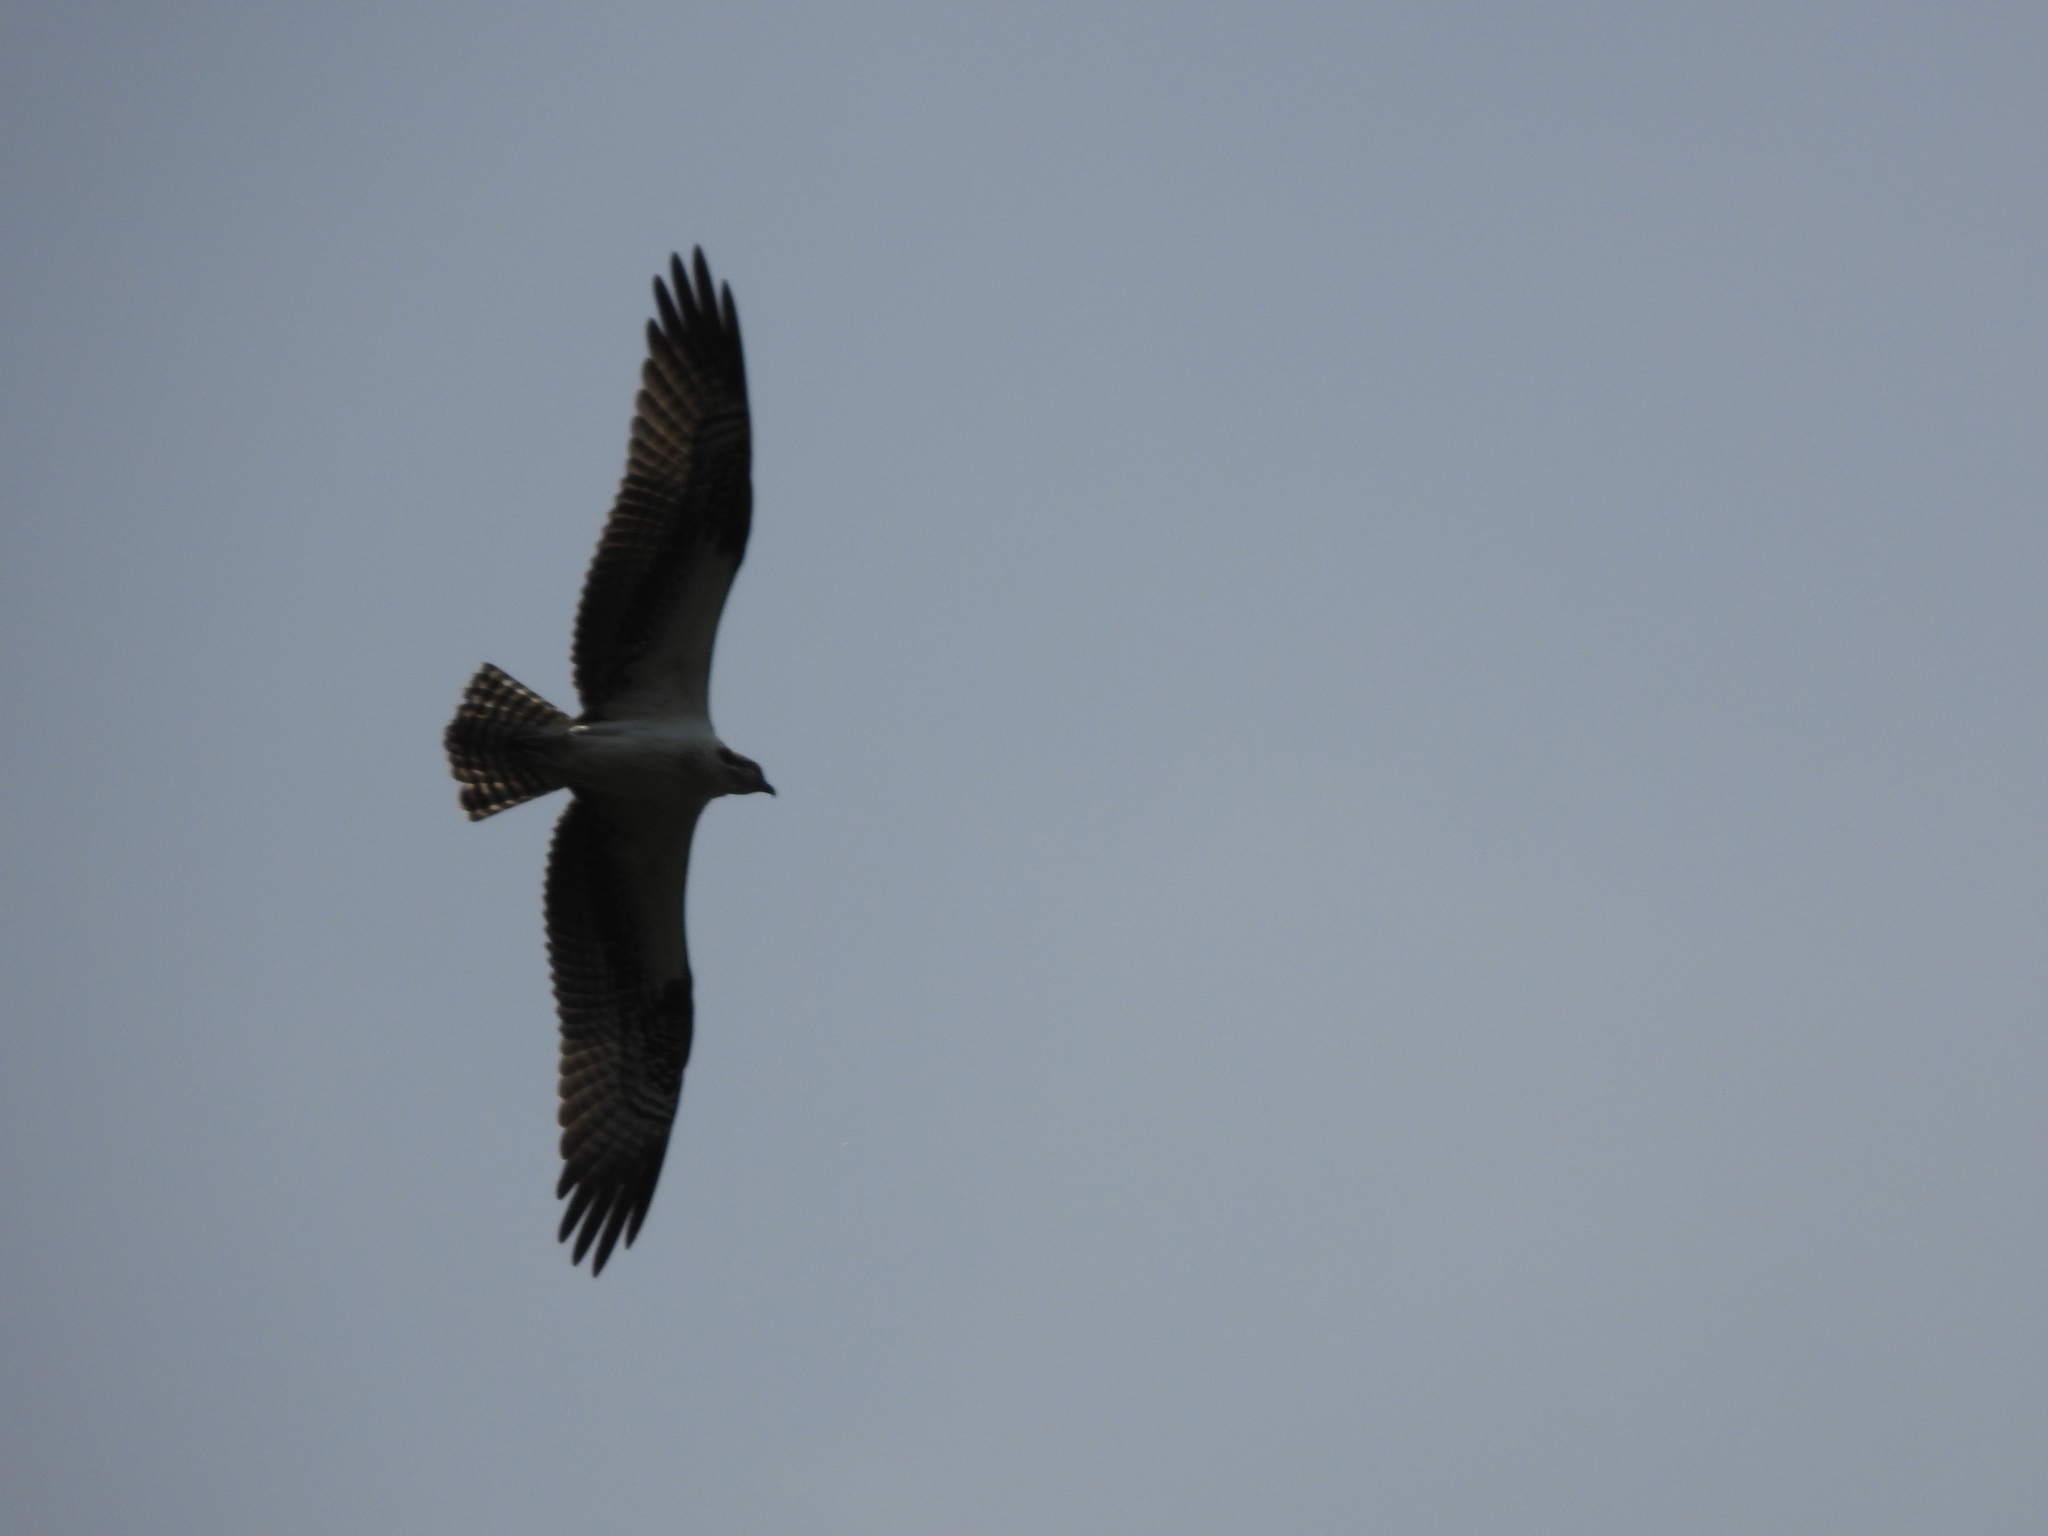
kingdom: Animalia
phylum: Chordata
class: Aves
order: Accipitriformes
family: Pandionidae
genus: Pandion
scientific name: Pandion haliaetus
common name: Osprey
